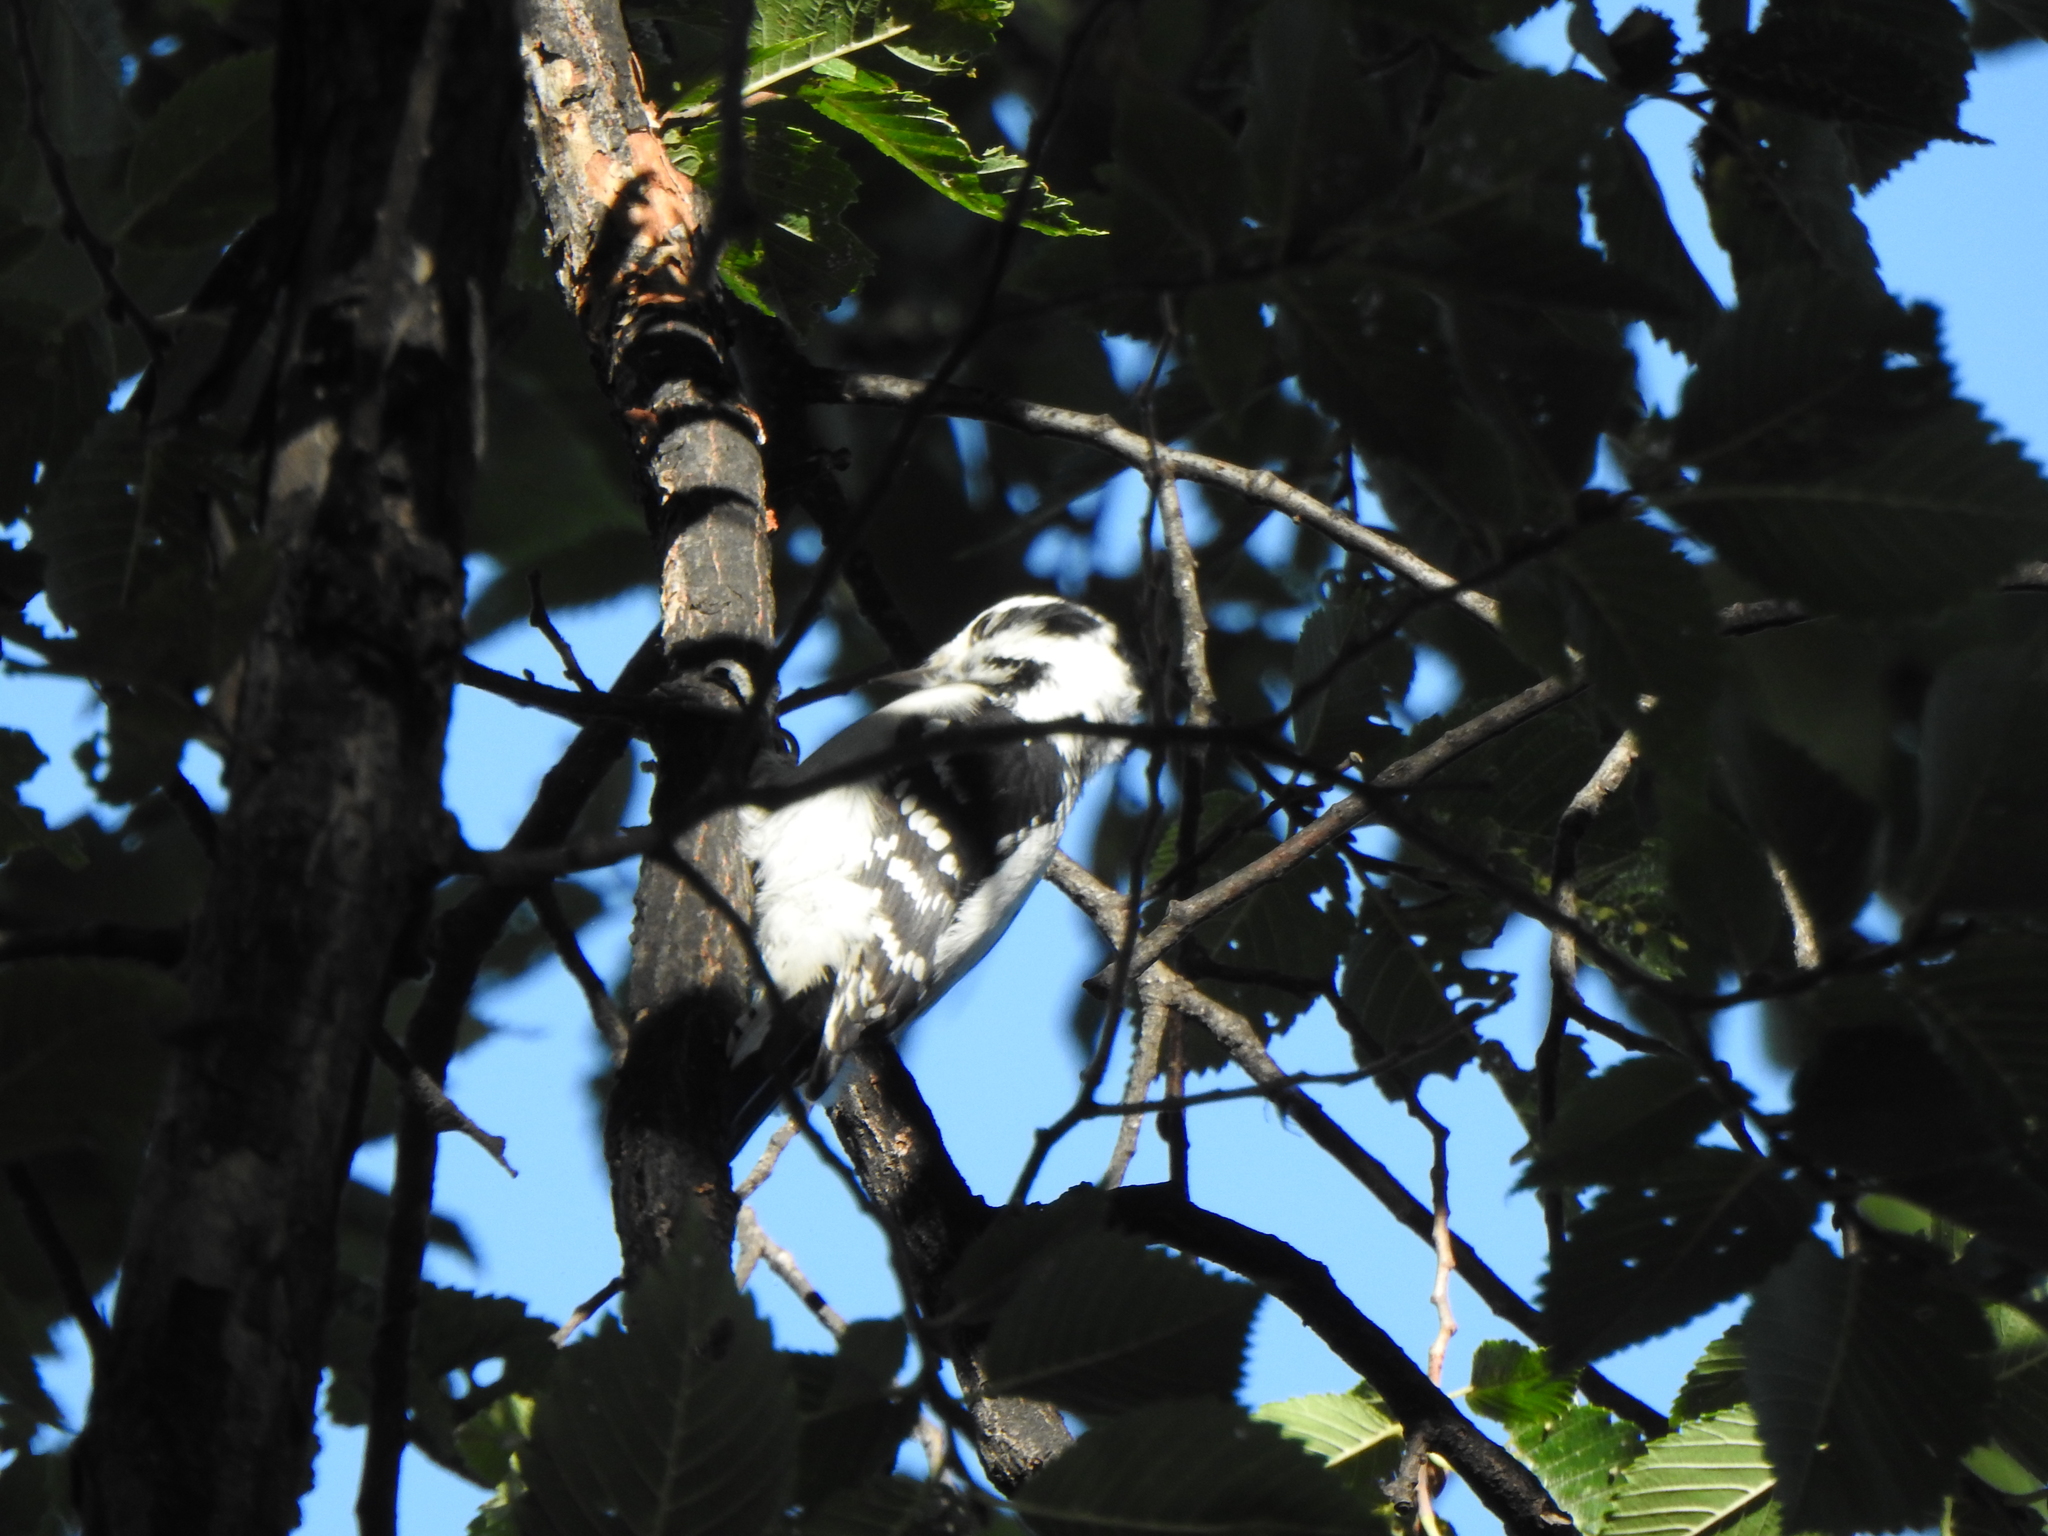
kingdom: Animalia
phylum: Chordata
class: Aves
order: Piciformes
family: Picidae
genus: Dryobates
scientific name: Dryobates pubescens
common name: Downy woodpecker
